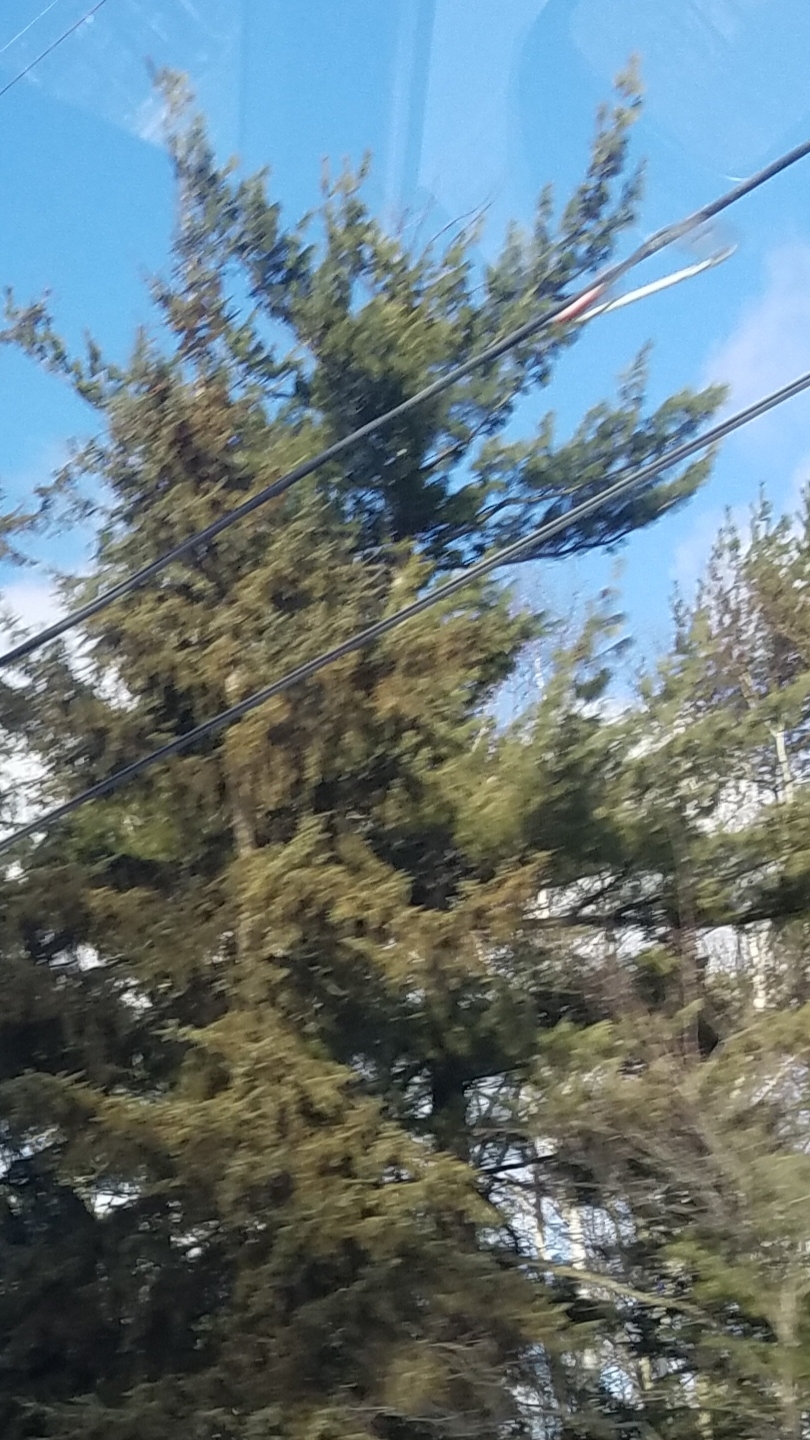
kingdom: Plantae
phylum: Tracheophyta
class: Pinopsida
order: Pinales
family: Pinaceae
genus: Pinus
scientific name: Pinus strobus
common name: Weymouth pine
